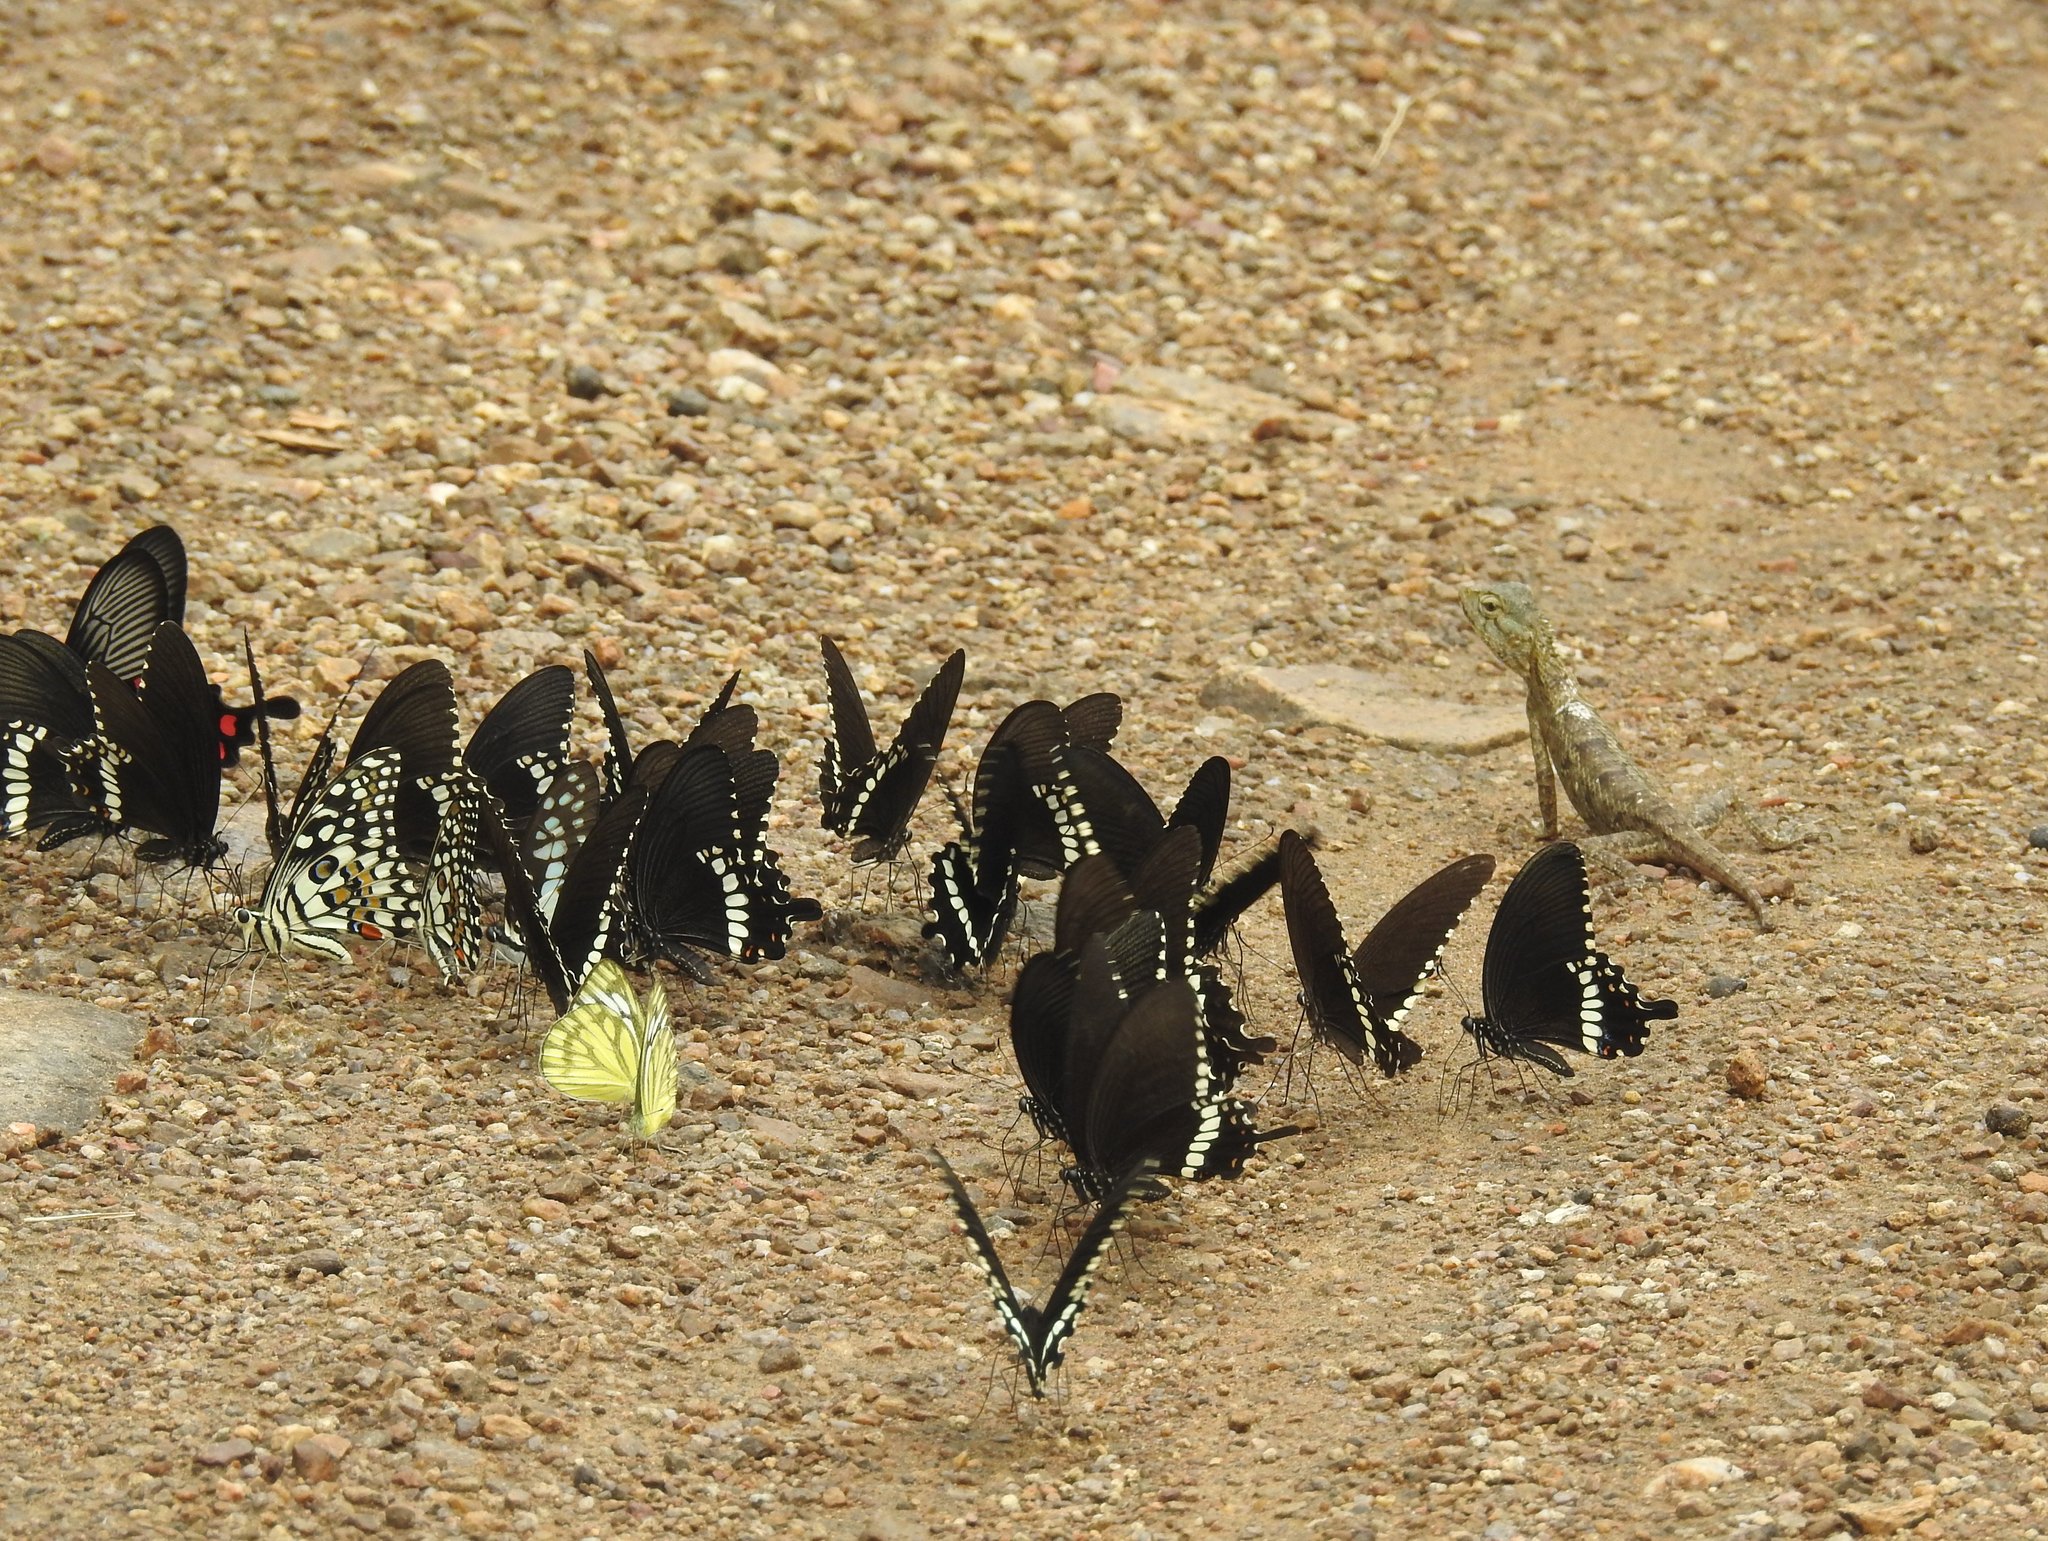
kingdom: Animalia
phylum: Arthropoda
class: Insecta
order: Lepidoptera
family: Papilionidae
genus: Papilio
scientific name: Papilio polytes
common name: Common mormon
